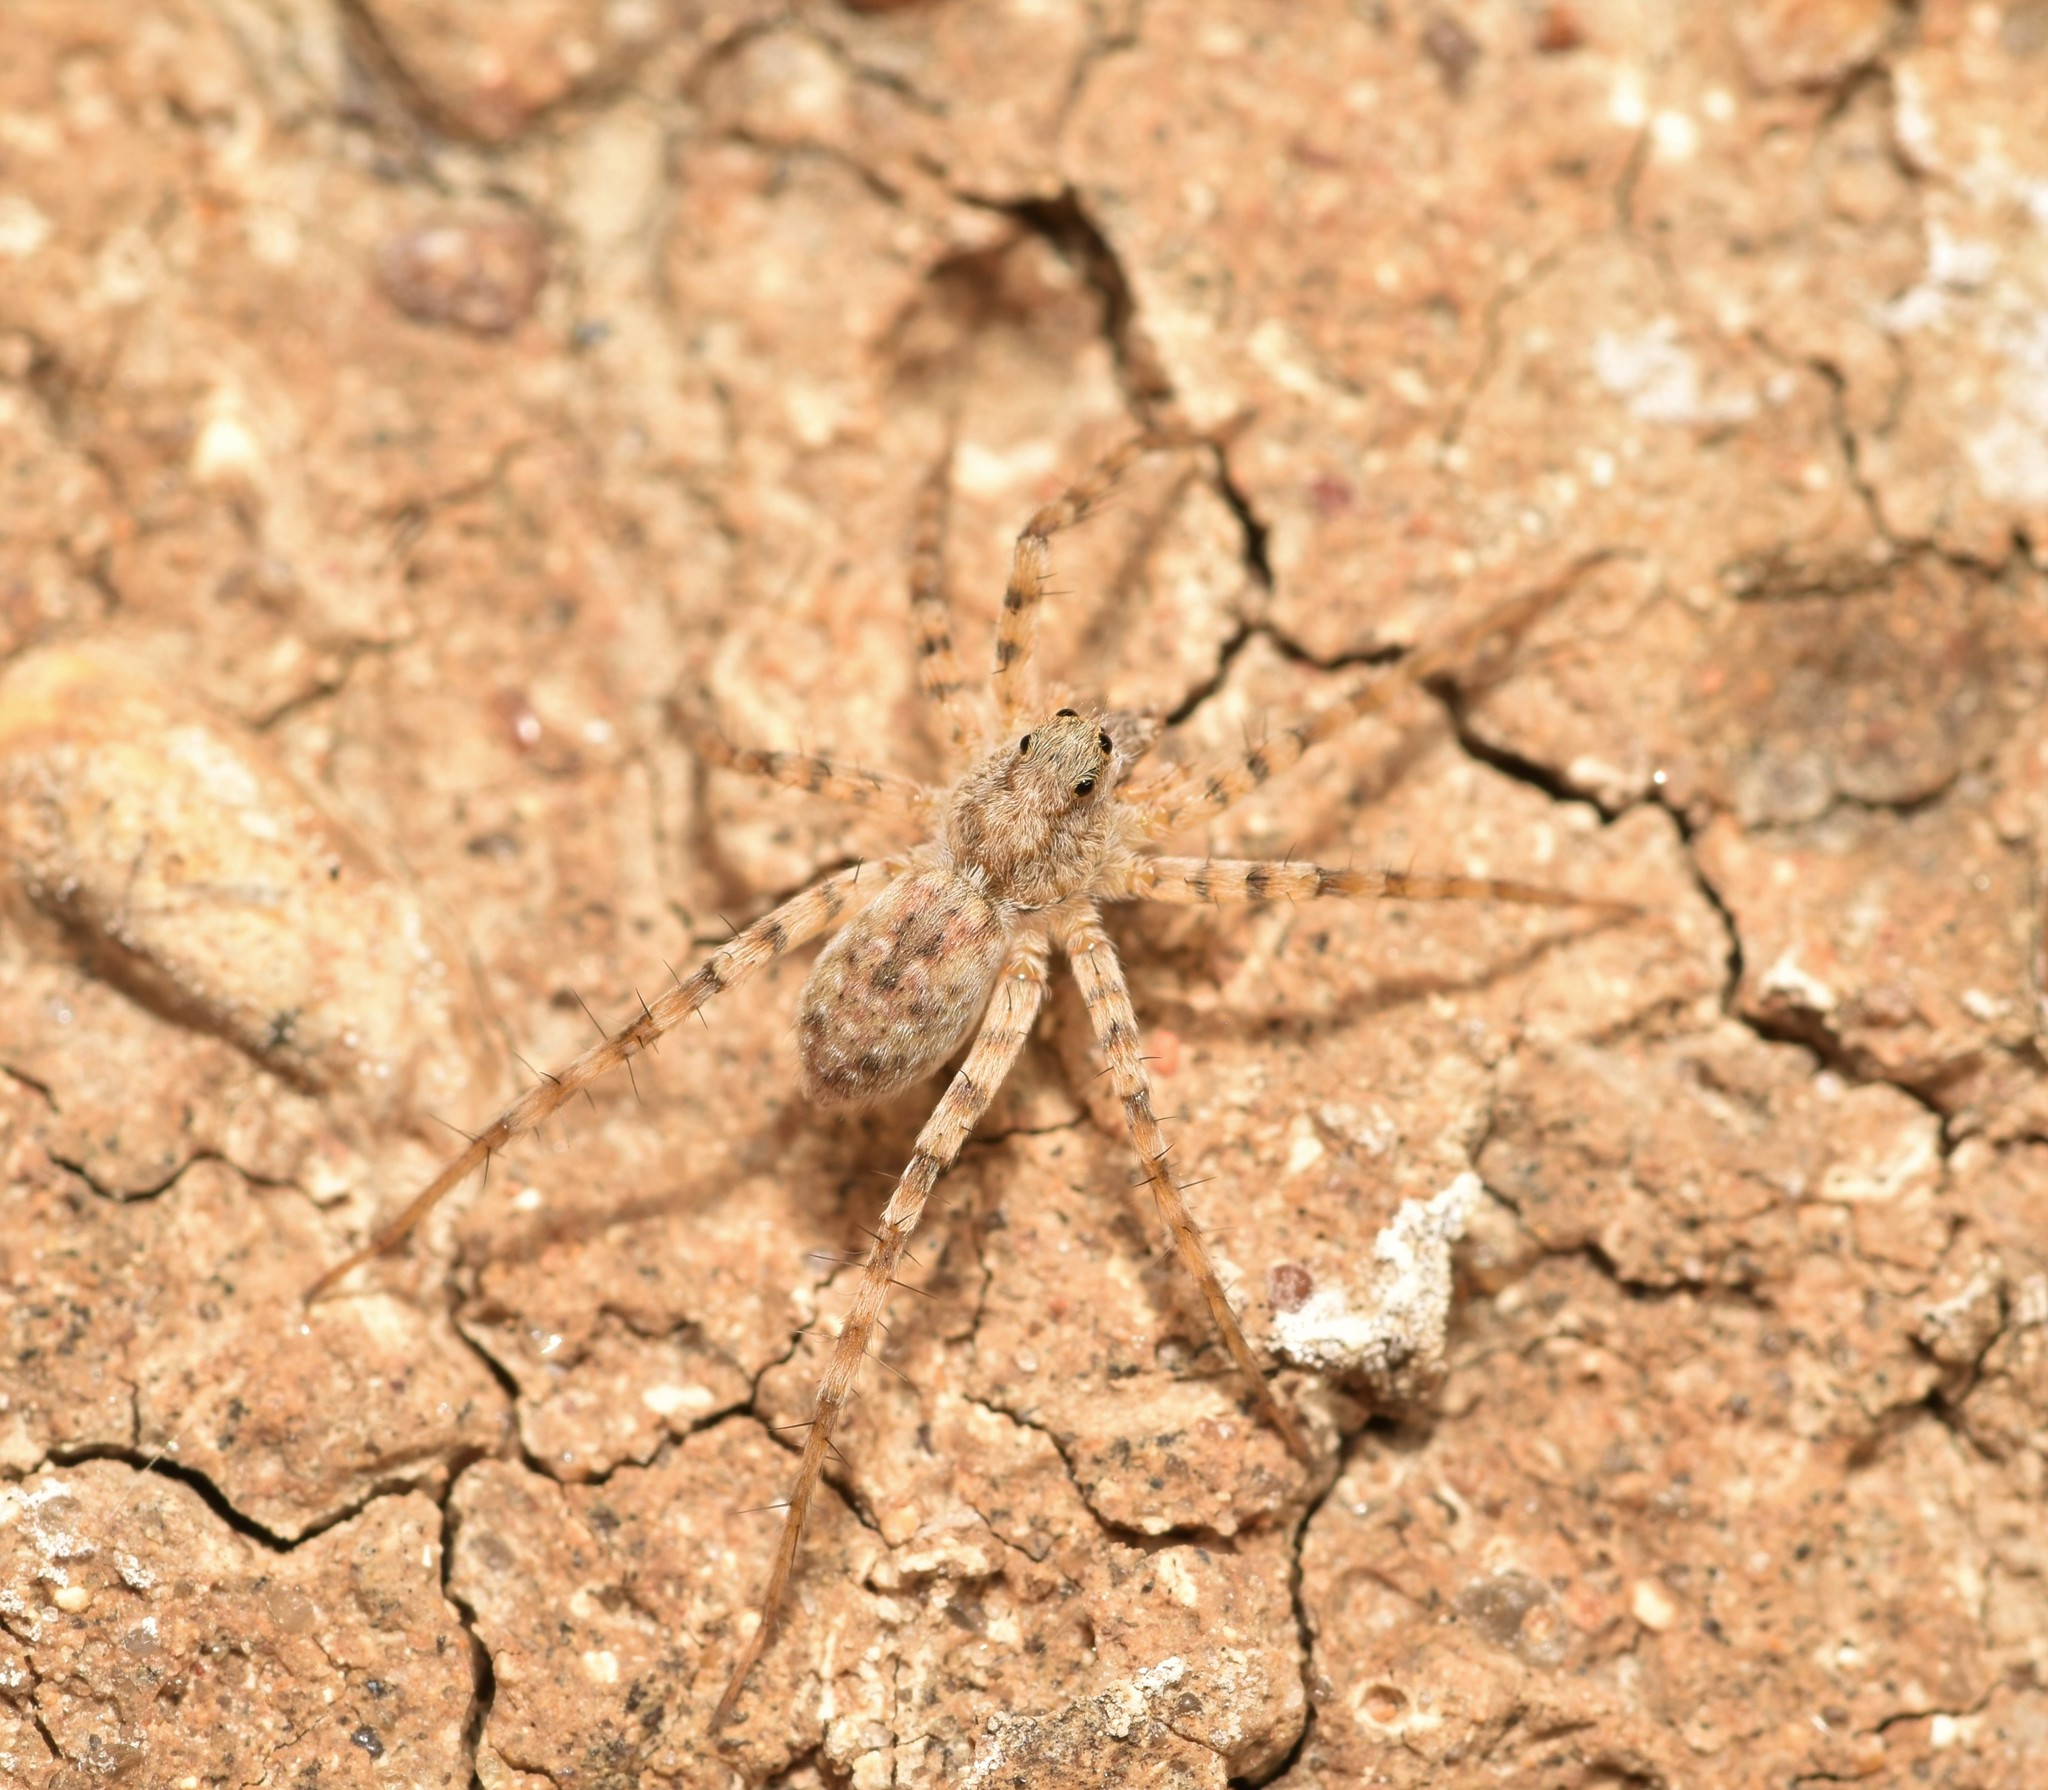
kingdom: Animalia
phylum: Arthropoda
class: Arachnida
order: Araneae
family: Lycosidae
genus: Pardosa
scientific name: Pardosa mercurialis
